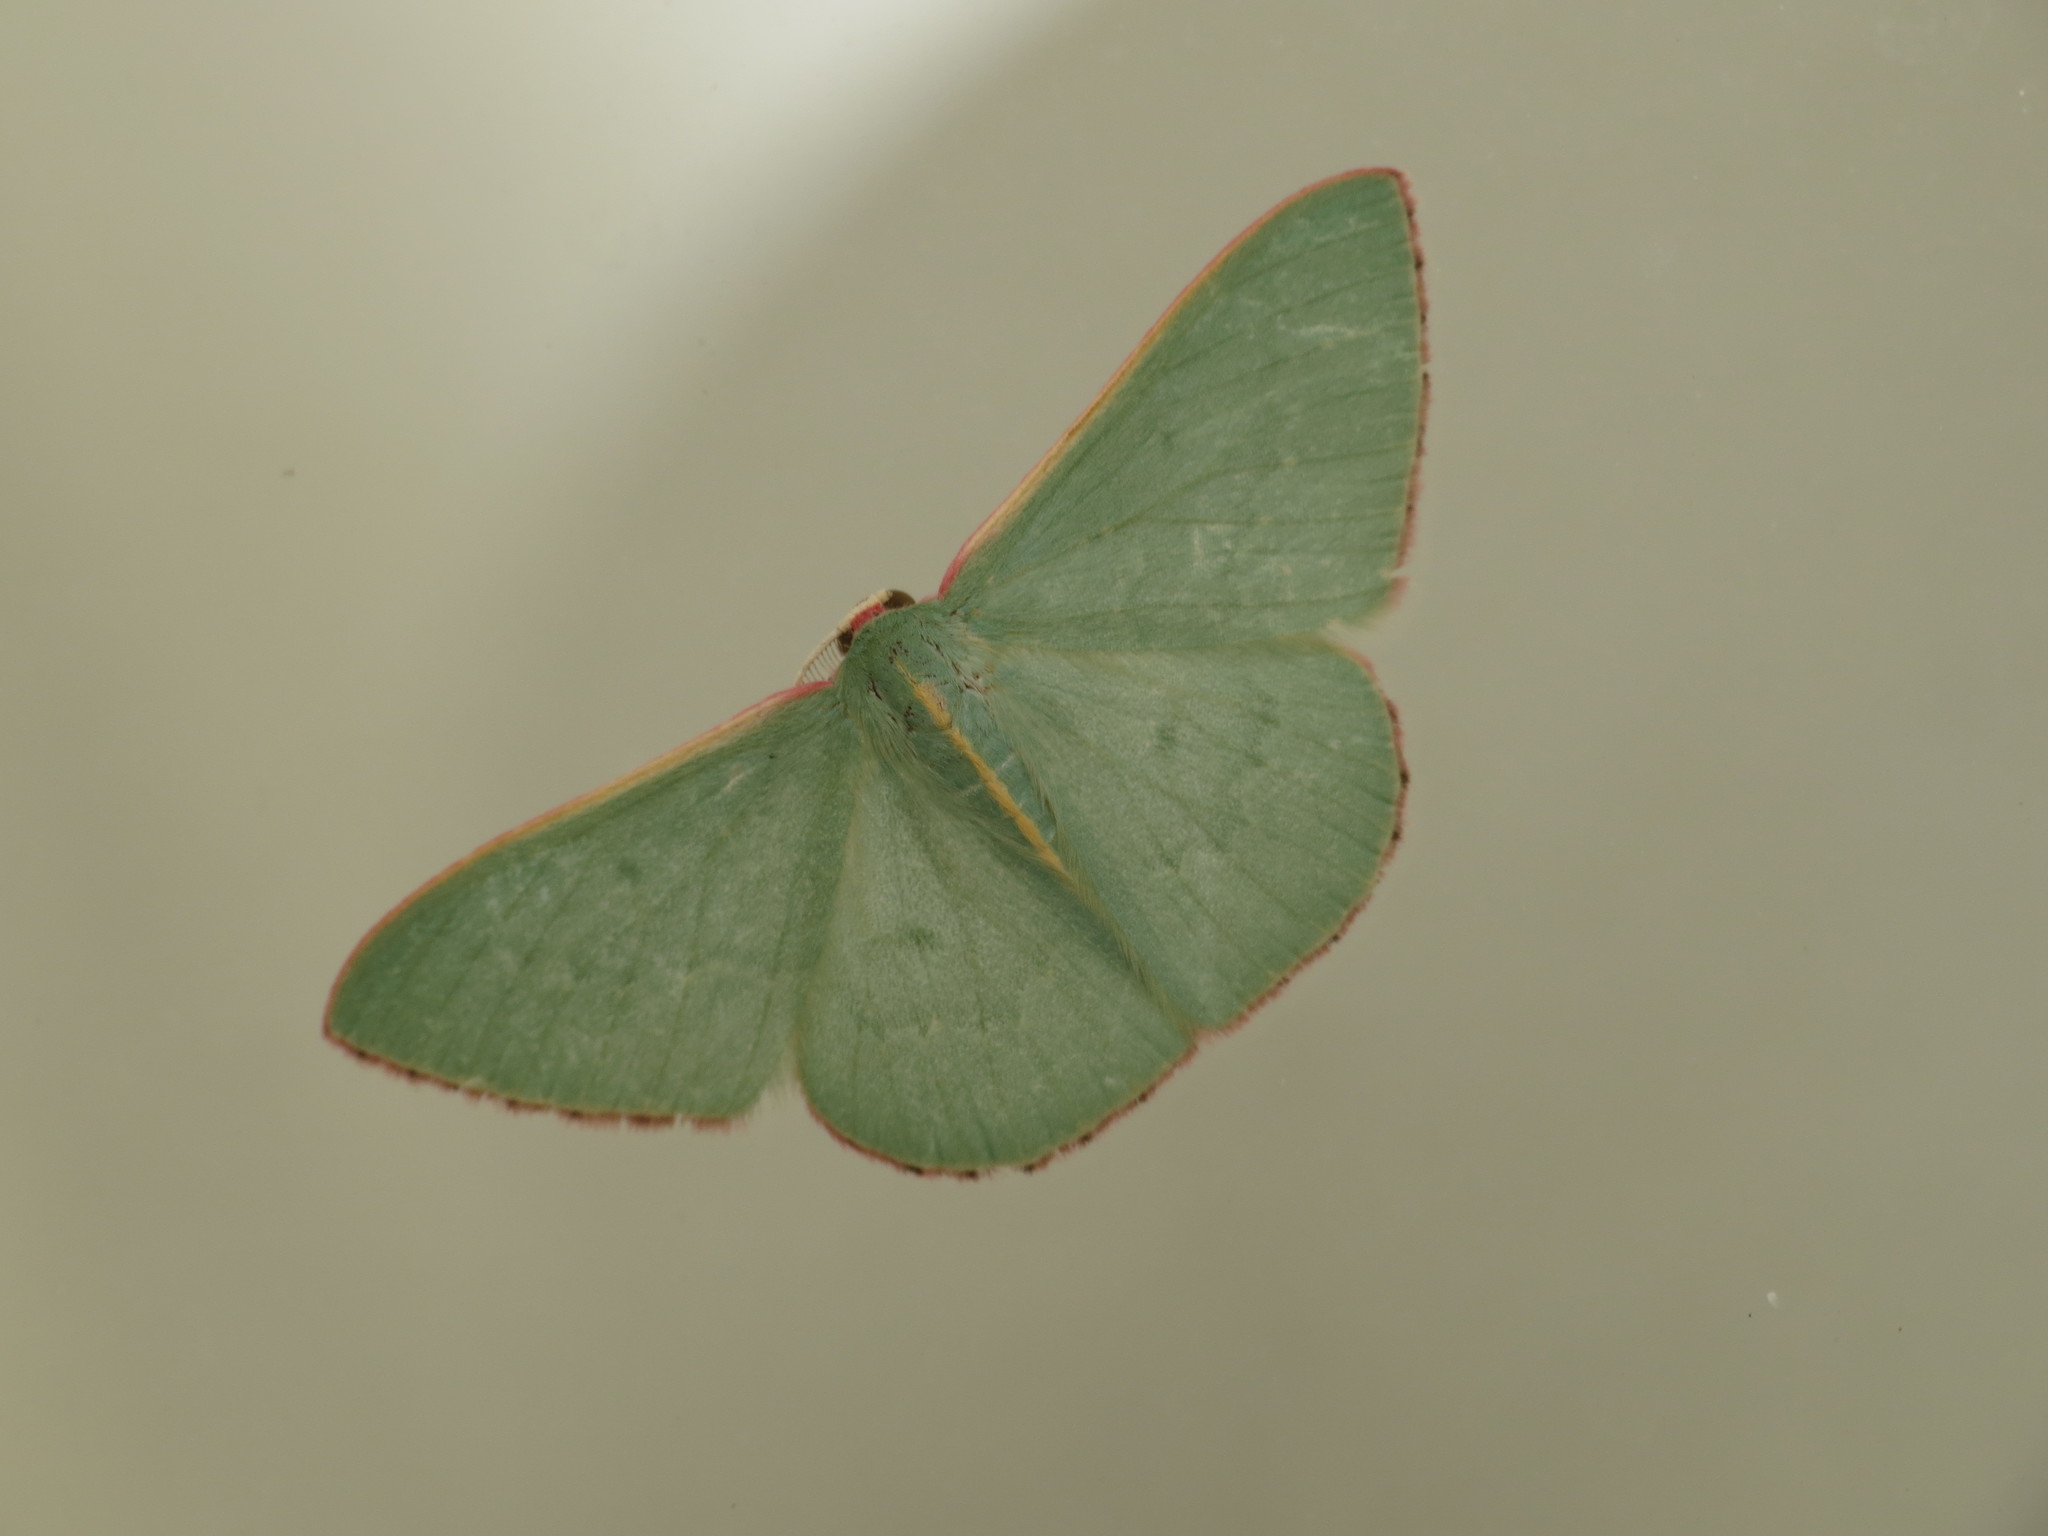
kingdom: Animalia
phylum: Arthropoda
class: Insecta
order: Lepidoptera
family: Geometridae
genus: Chlorocoma
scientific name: Chlorocoma vertumnaria
